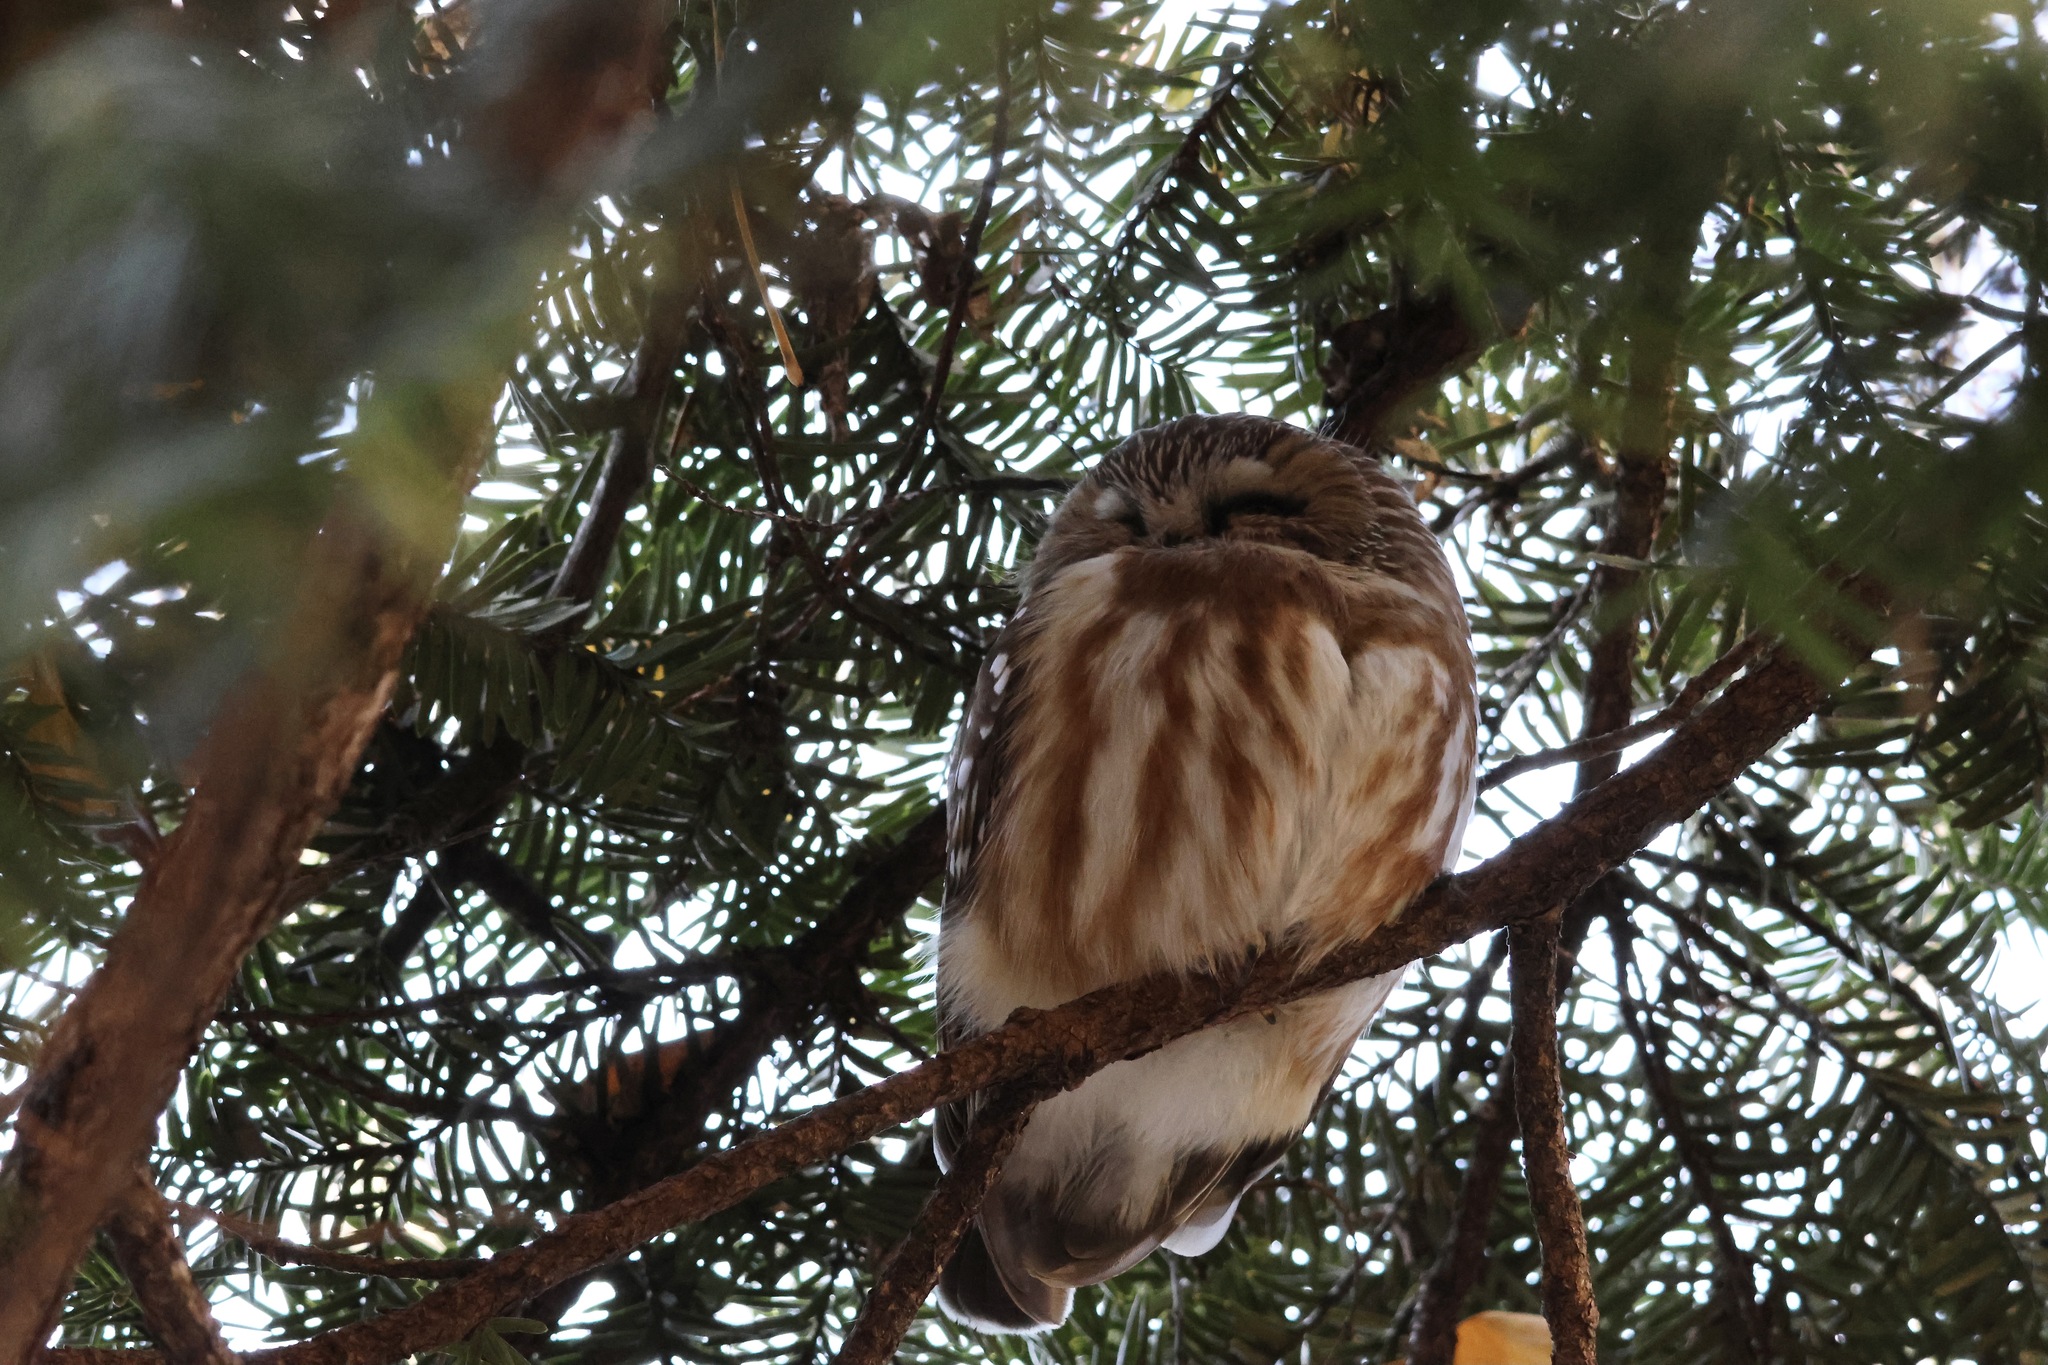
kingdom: Animalia
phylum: Chordata
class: Aves
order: Strigiformes
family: Strigidae
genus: Aegolius
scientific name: Aegolius acadicus
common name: Northern saw-whet owl
